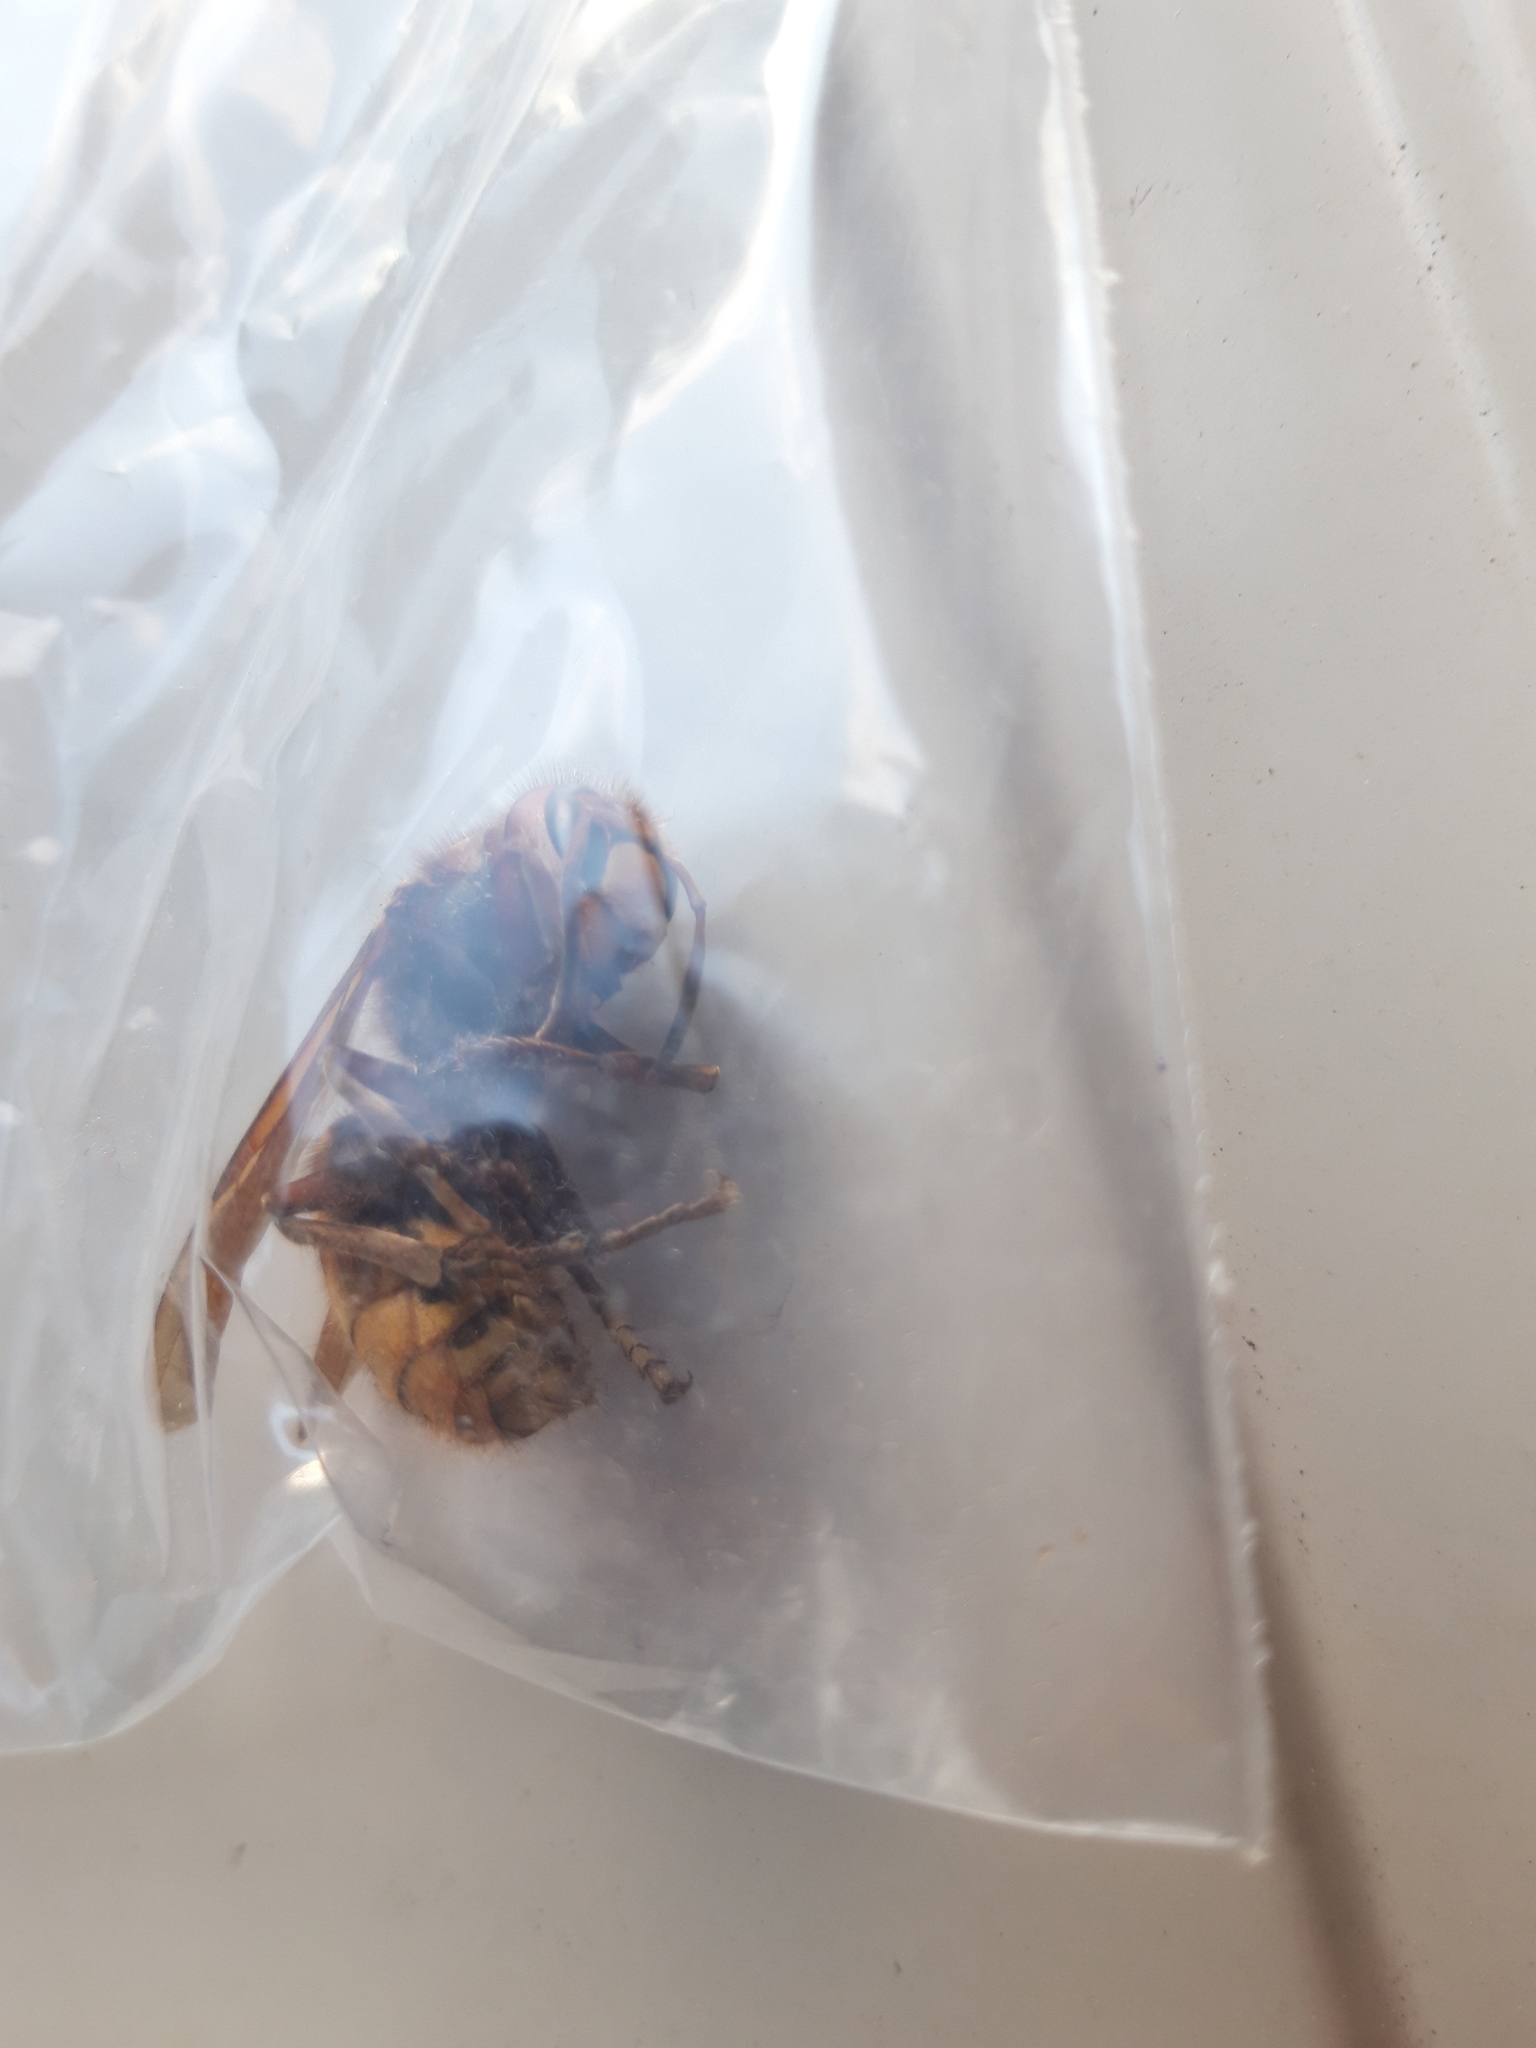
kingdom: Animalia
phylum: Arthropoda
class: Insecta
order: Hymenoptera
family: Vespidae
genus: Vespa
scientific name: Vespa crabro
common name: Hornet
